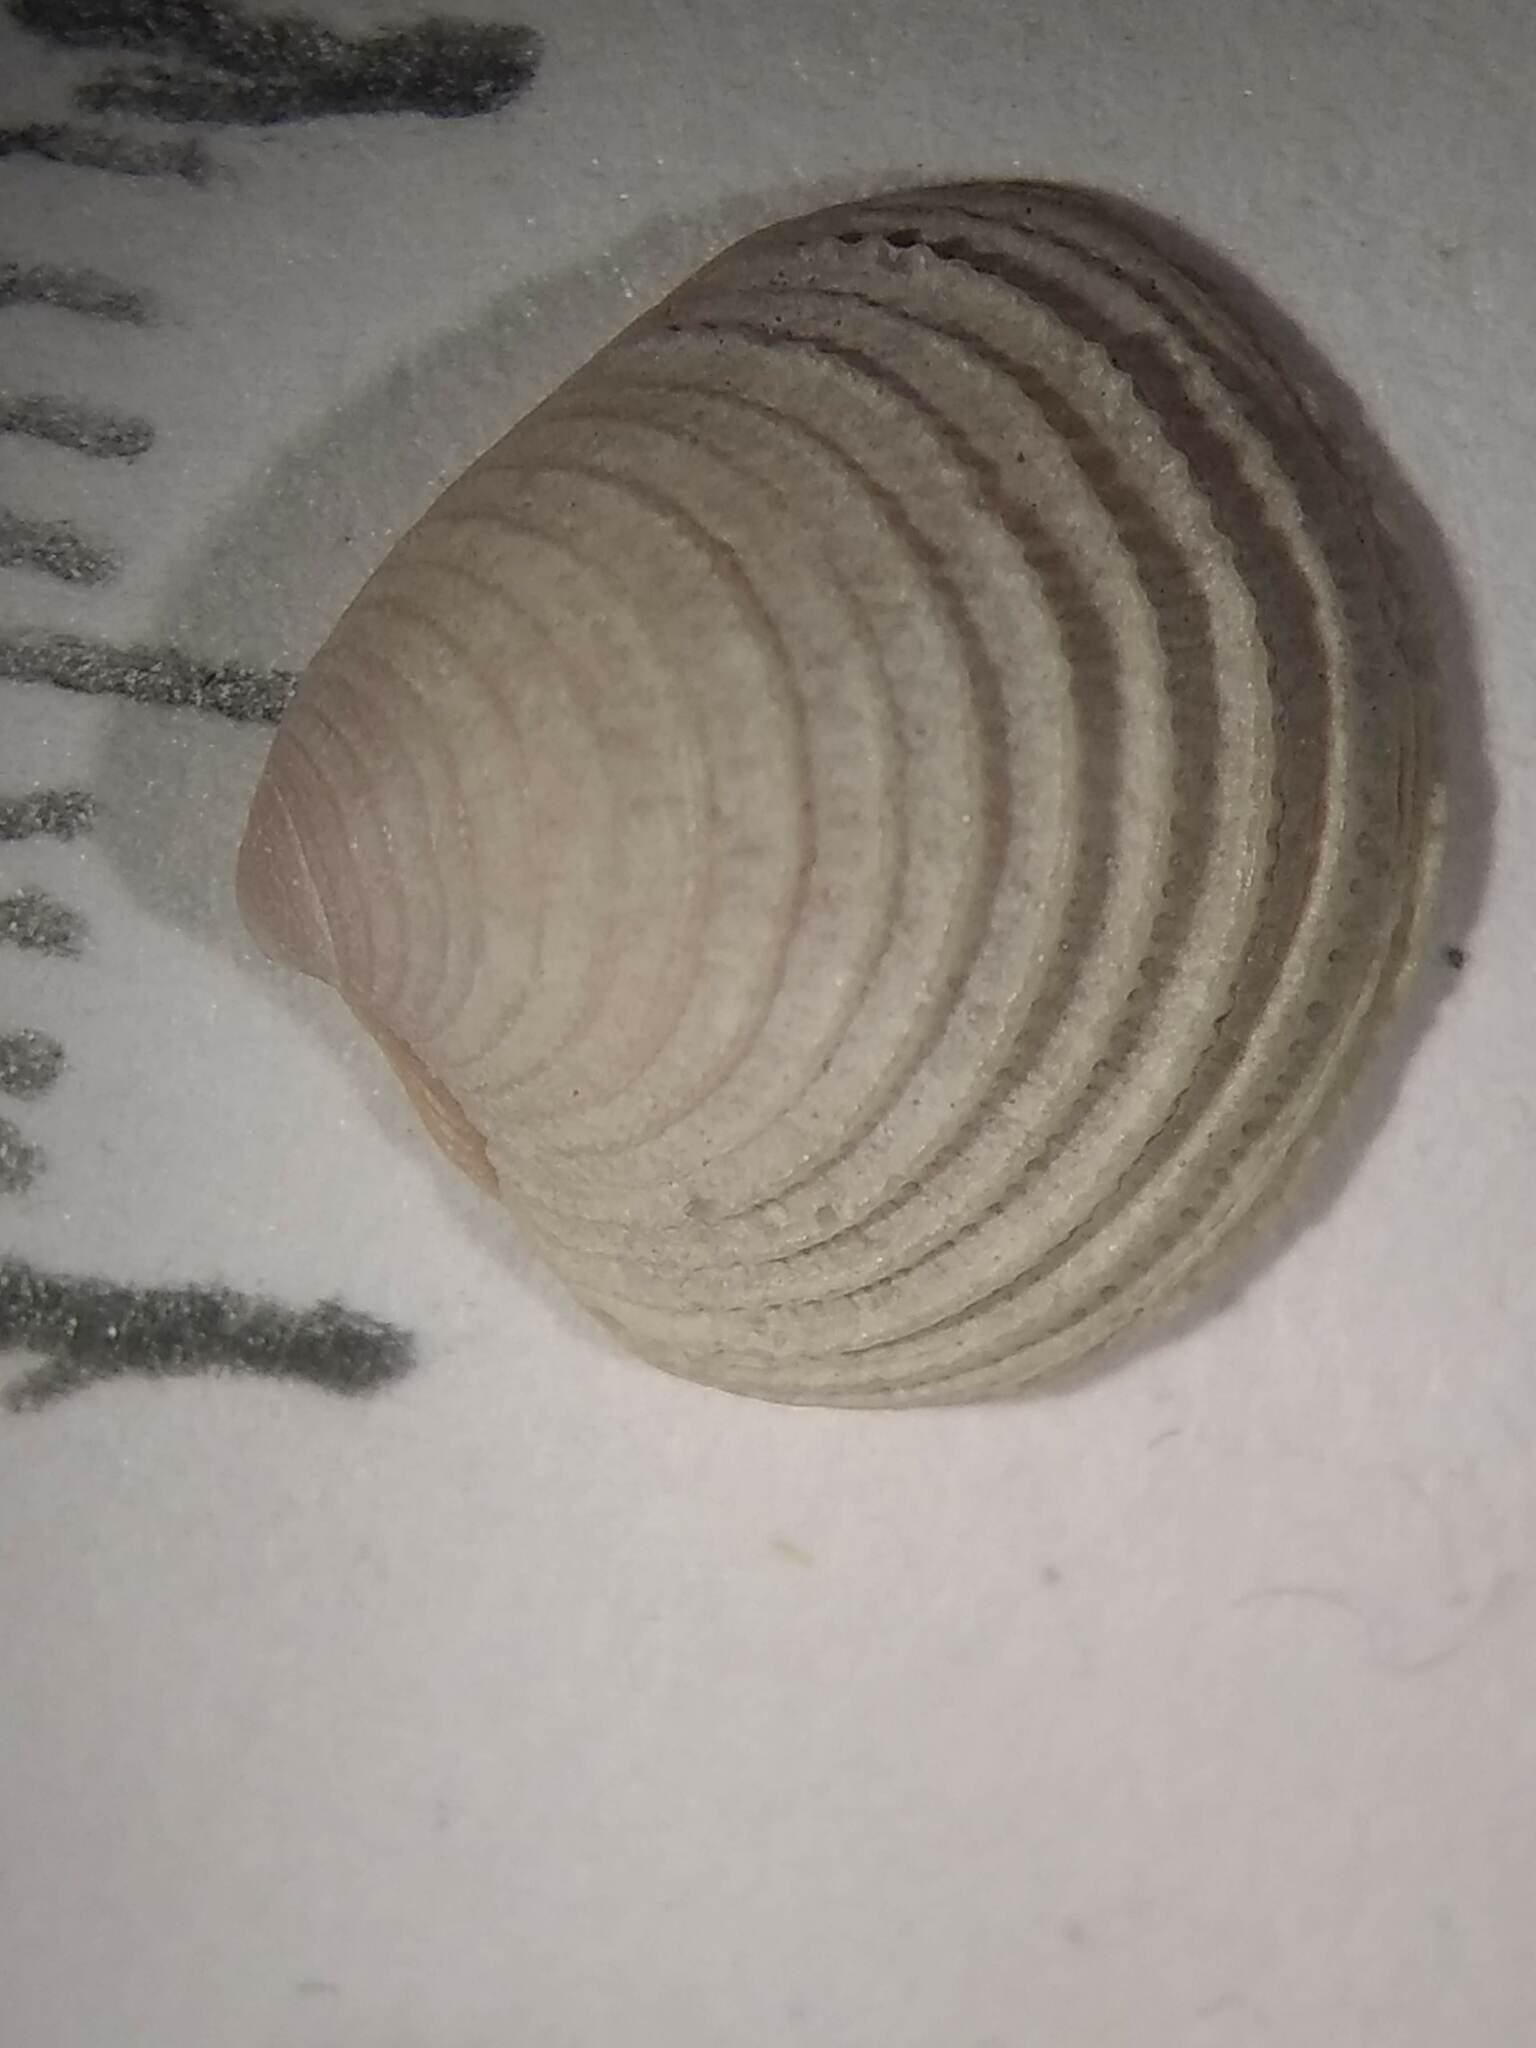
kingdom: Animalia
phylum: Mollusca
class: Bivalvia
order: Venerida
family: Veneridae
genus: Chionopsis
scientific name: Chionopsis intapurpurea
